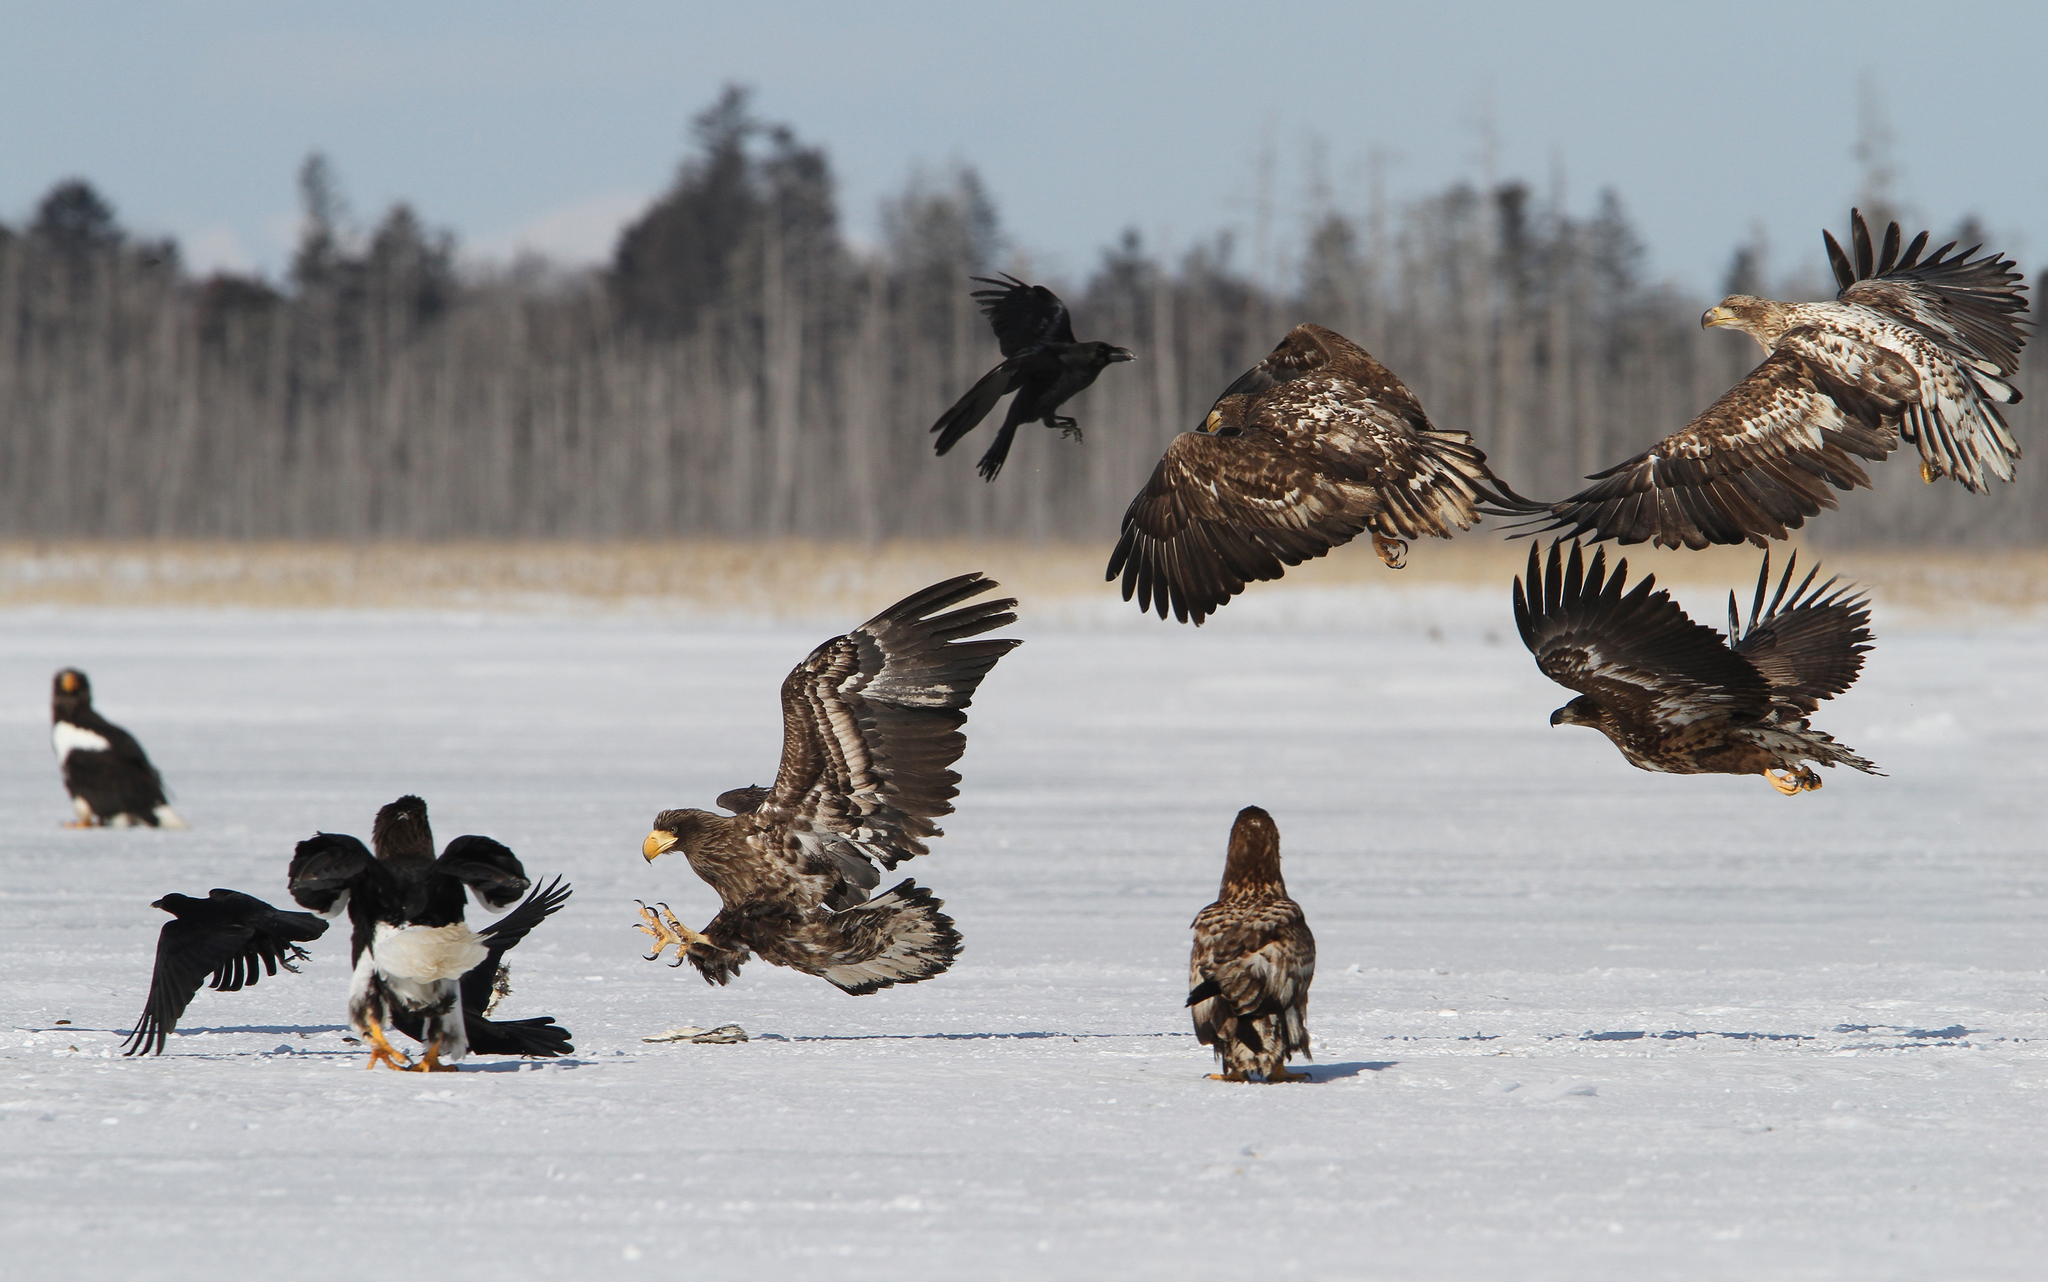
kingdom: Animalia
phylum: Chordata
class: Aves
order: Accipitriformes
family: Accipitridae
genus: Haliaeetus
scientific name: Haliaeetus albicilla
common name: White-tailed eagle
